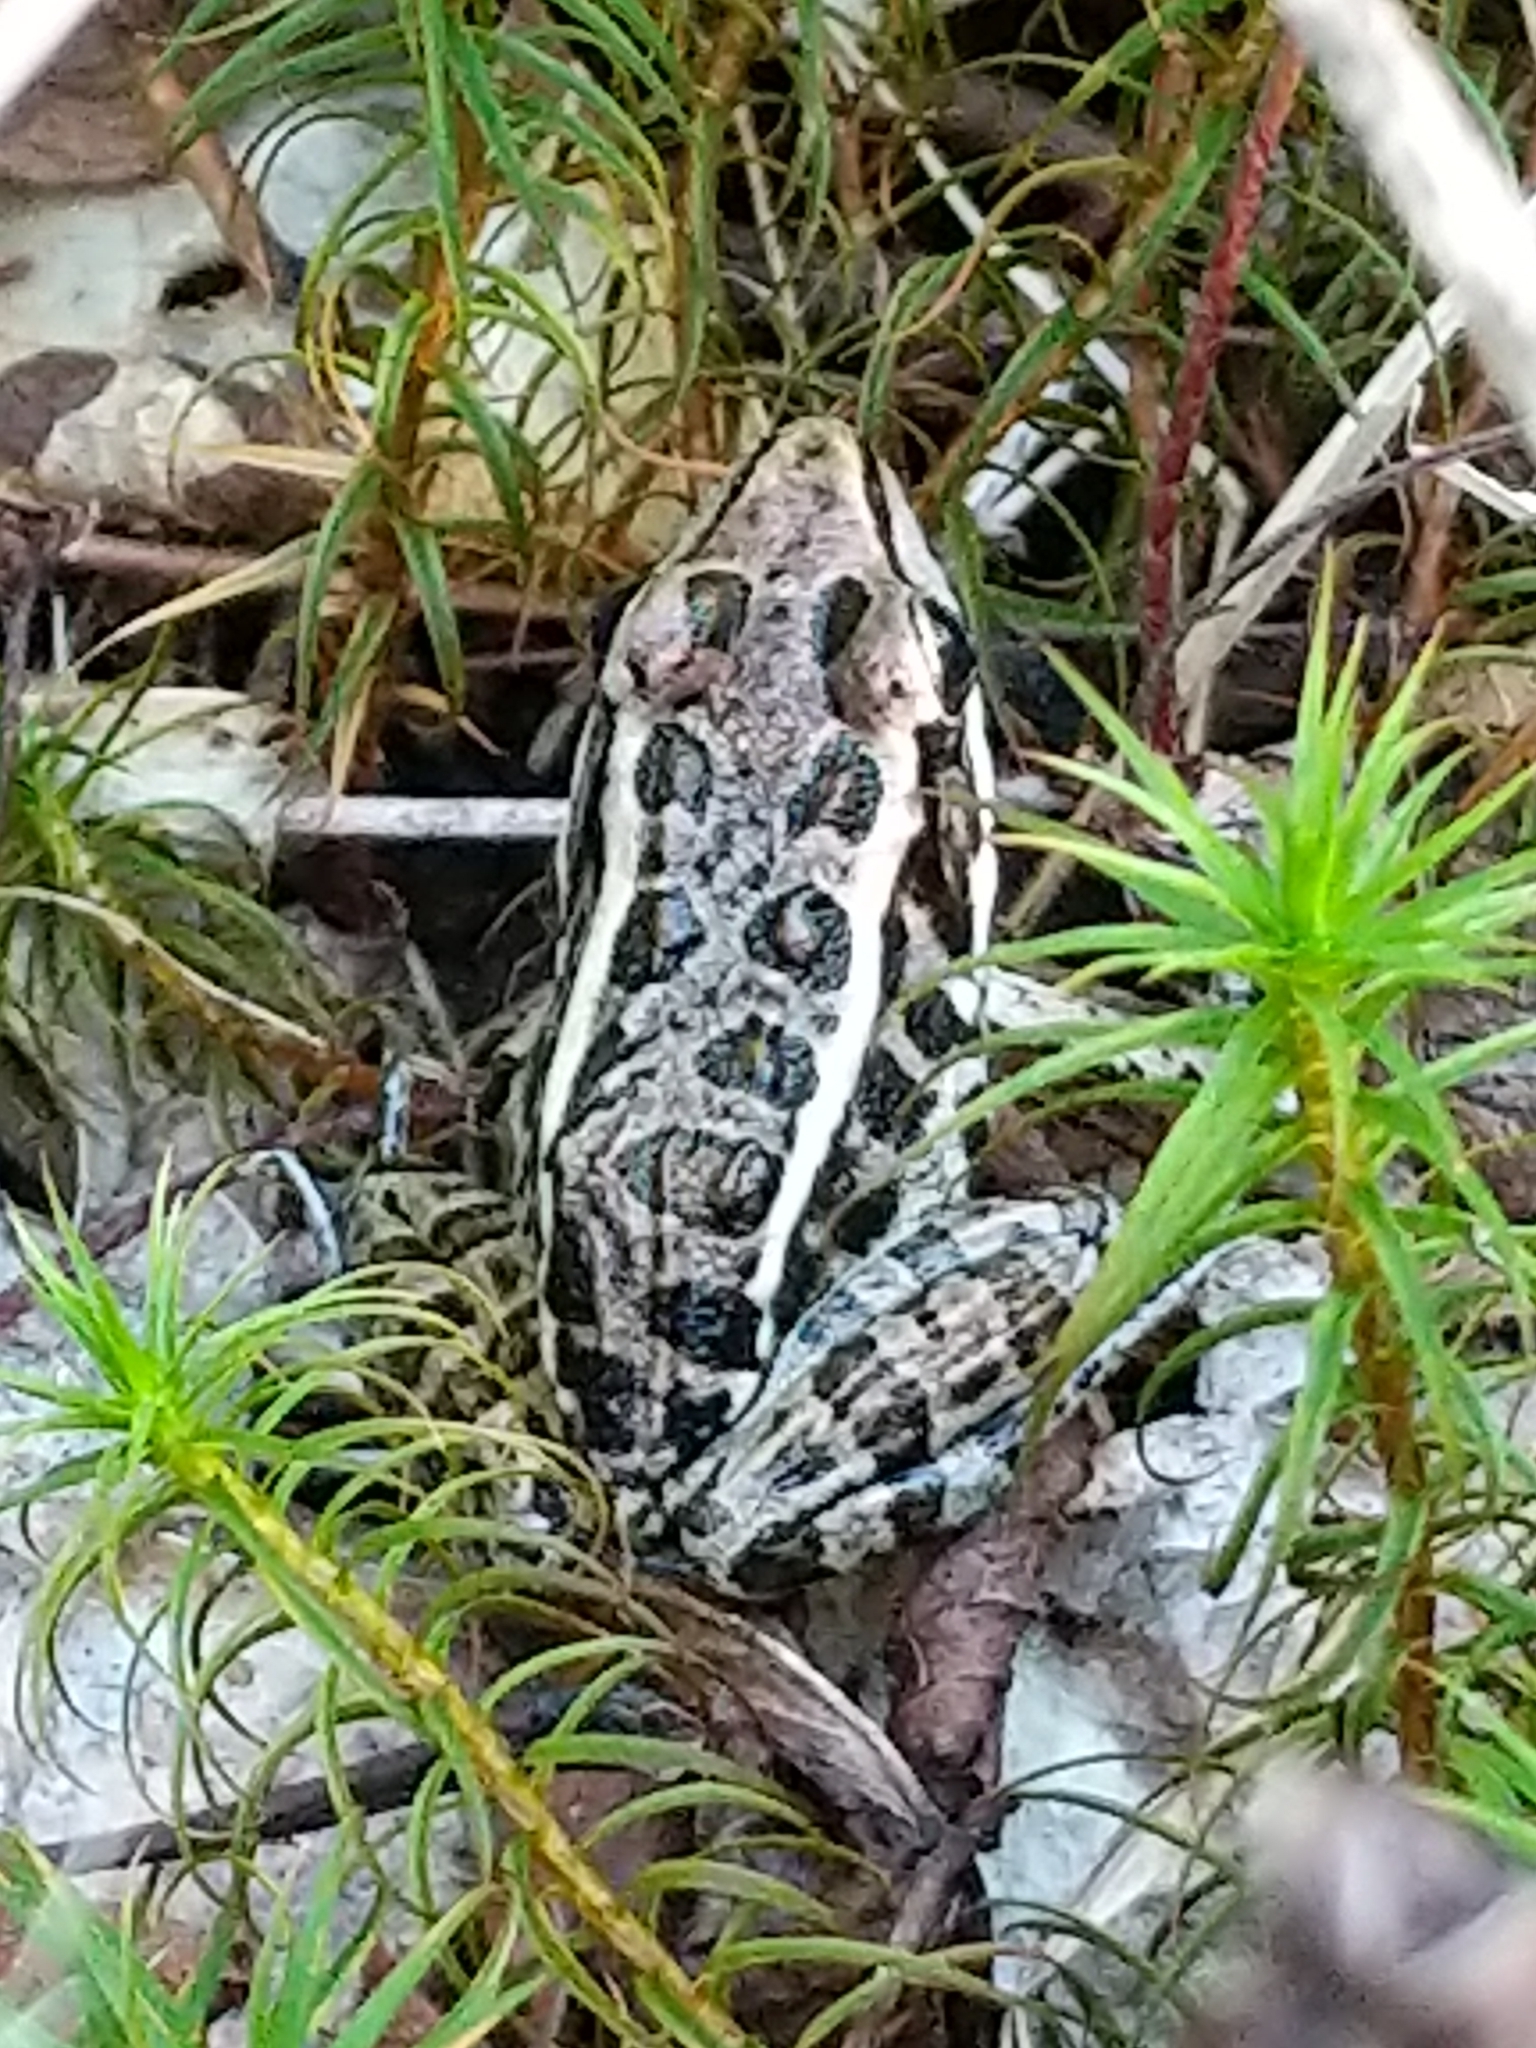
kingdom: Animalia
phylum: Chordata
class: Amphibia
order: Anura
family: Ranidae
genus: Lithobates
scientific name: Lithobates palustris
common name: Pickerel frog
